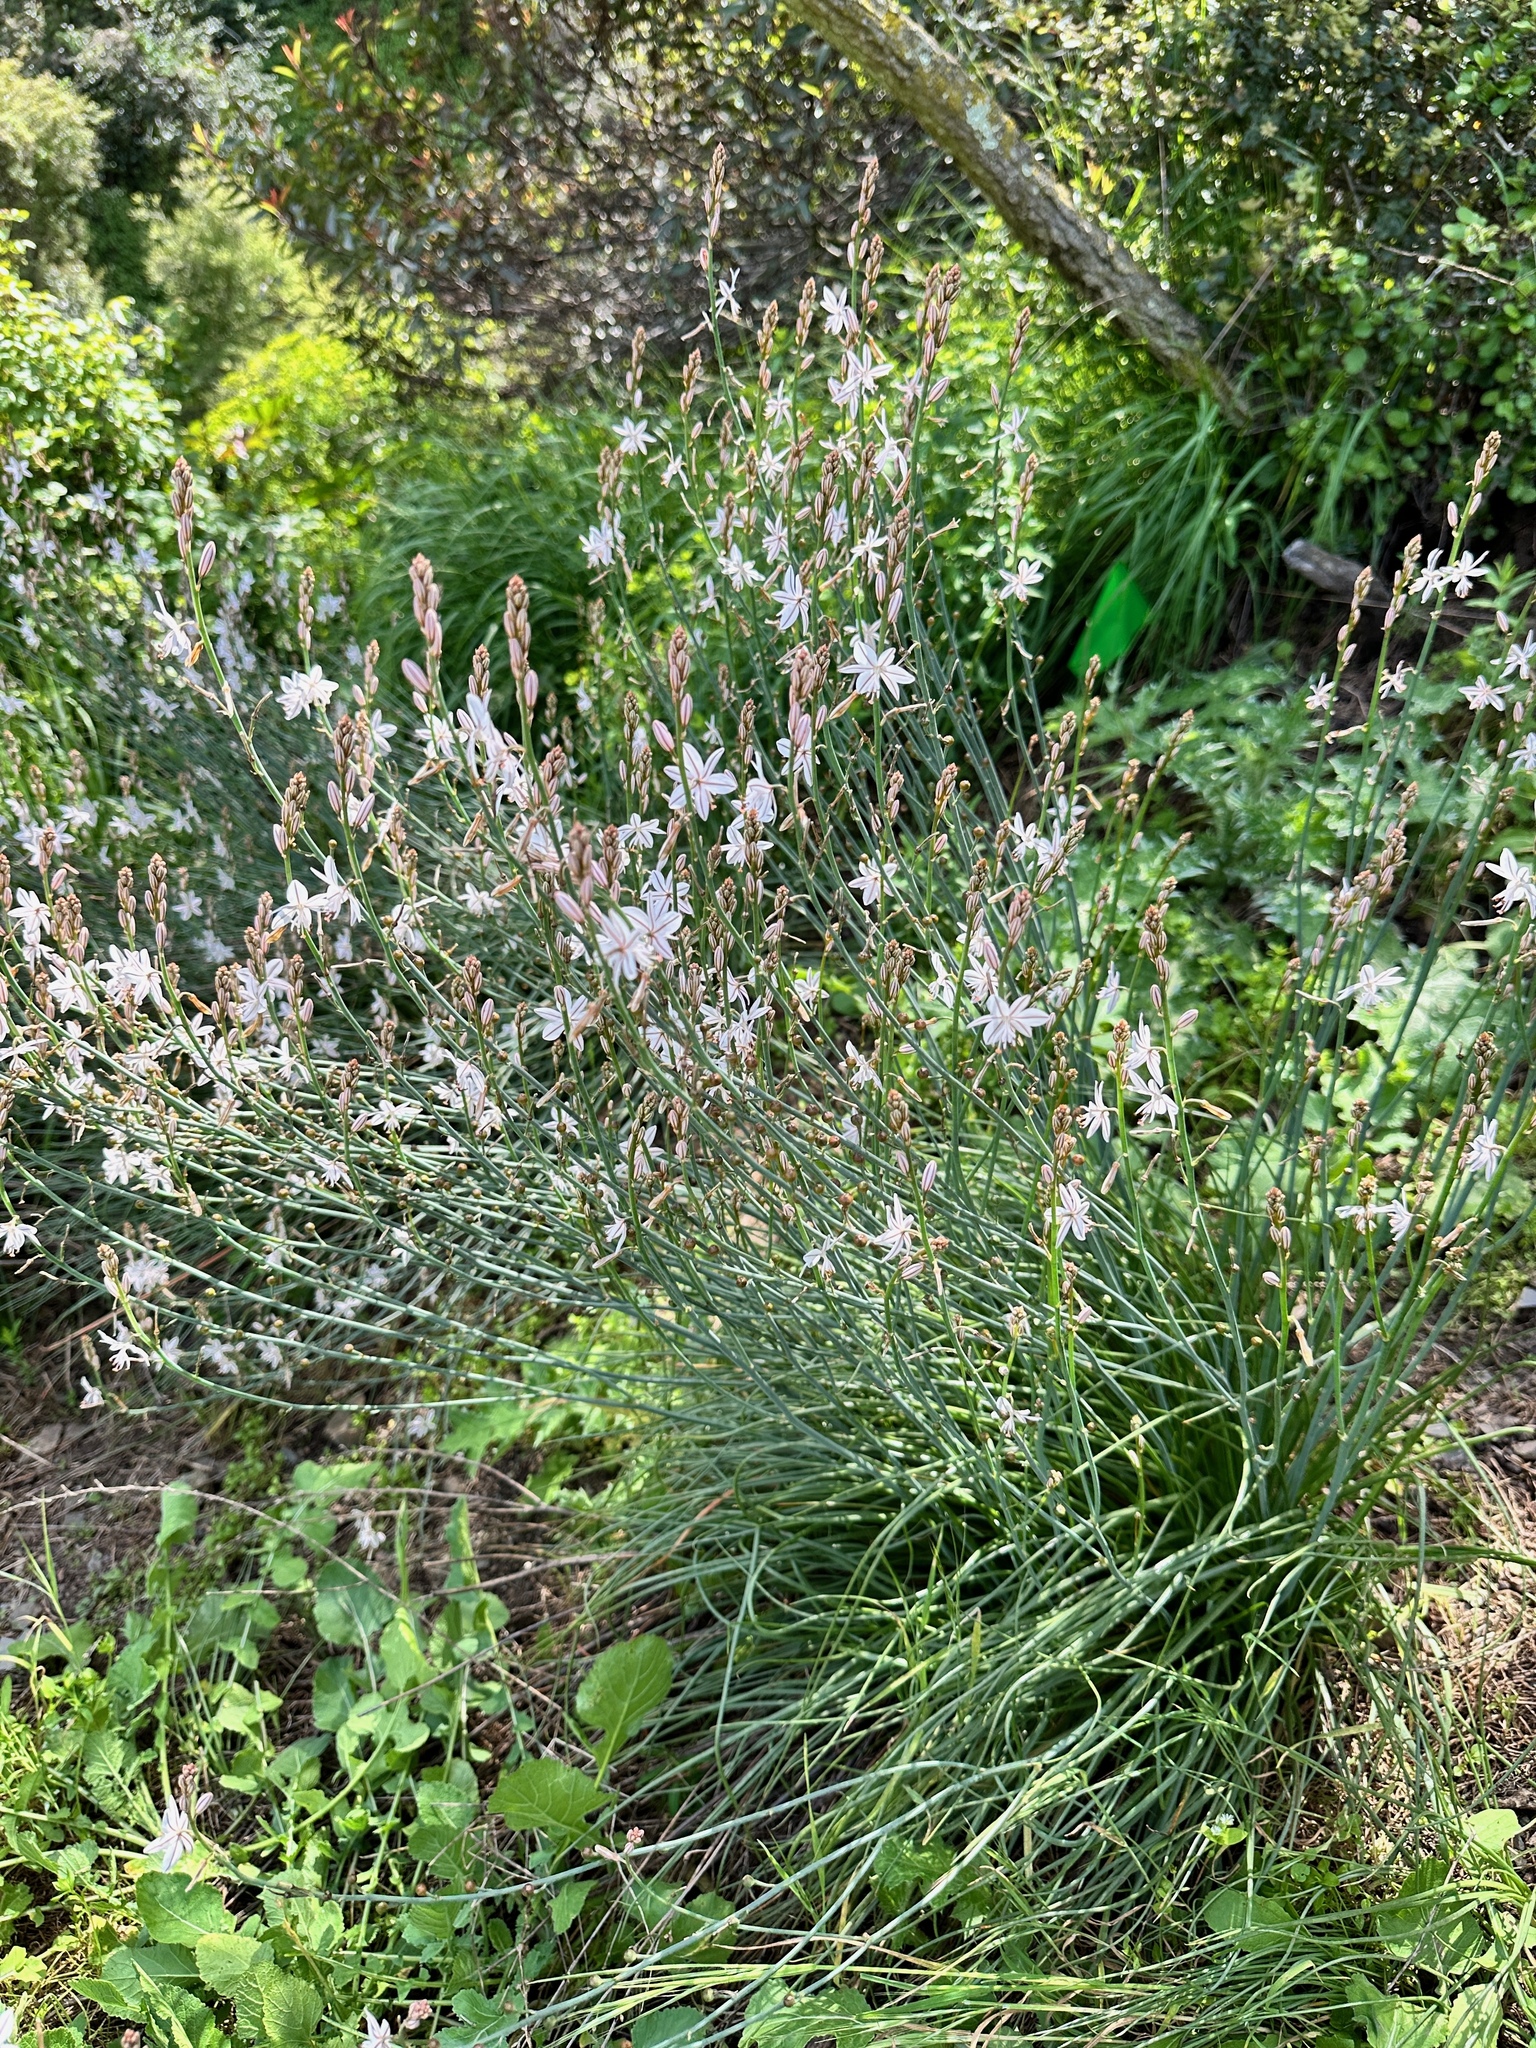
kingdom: Plantae
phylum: Tracheophyta
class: Liliopsida
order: Asparagales
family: Asphodelaceae
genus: Asphodelus
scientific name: Asphodelus fistulosus
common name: Onionweed
